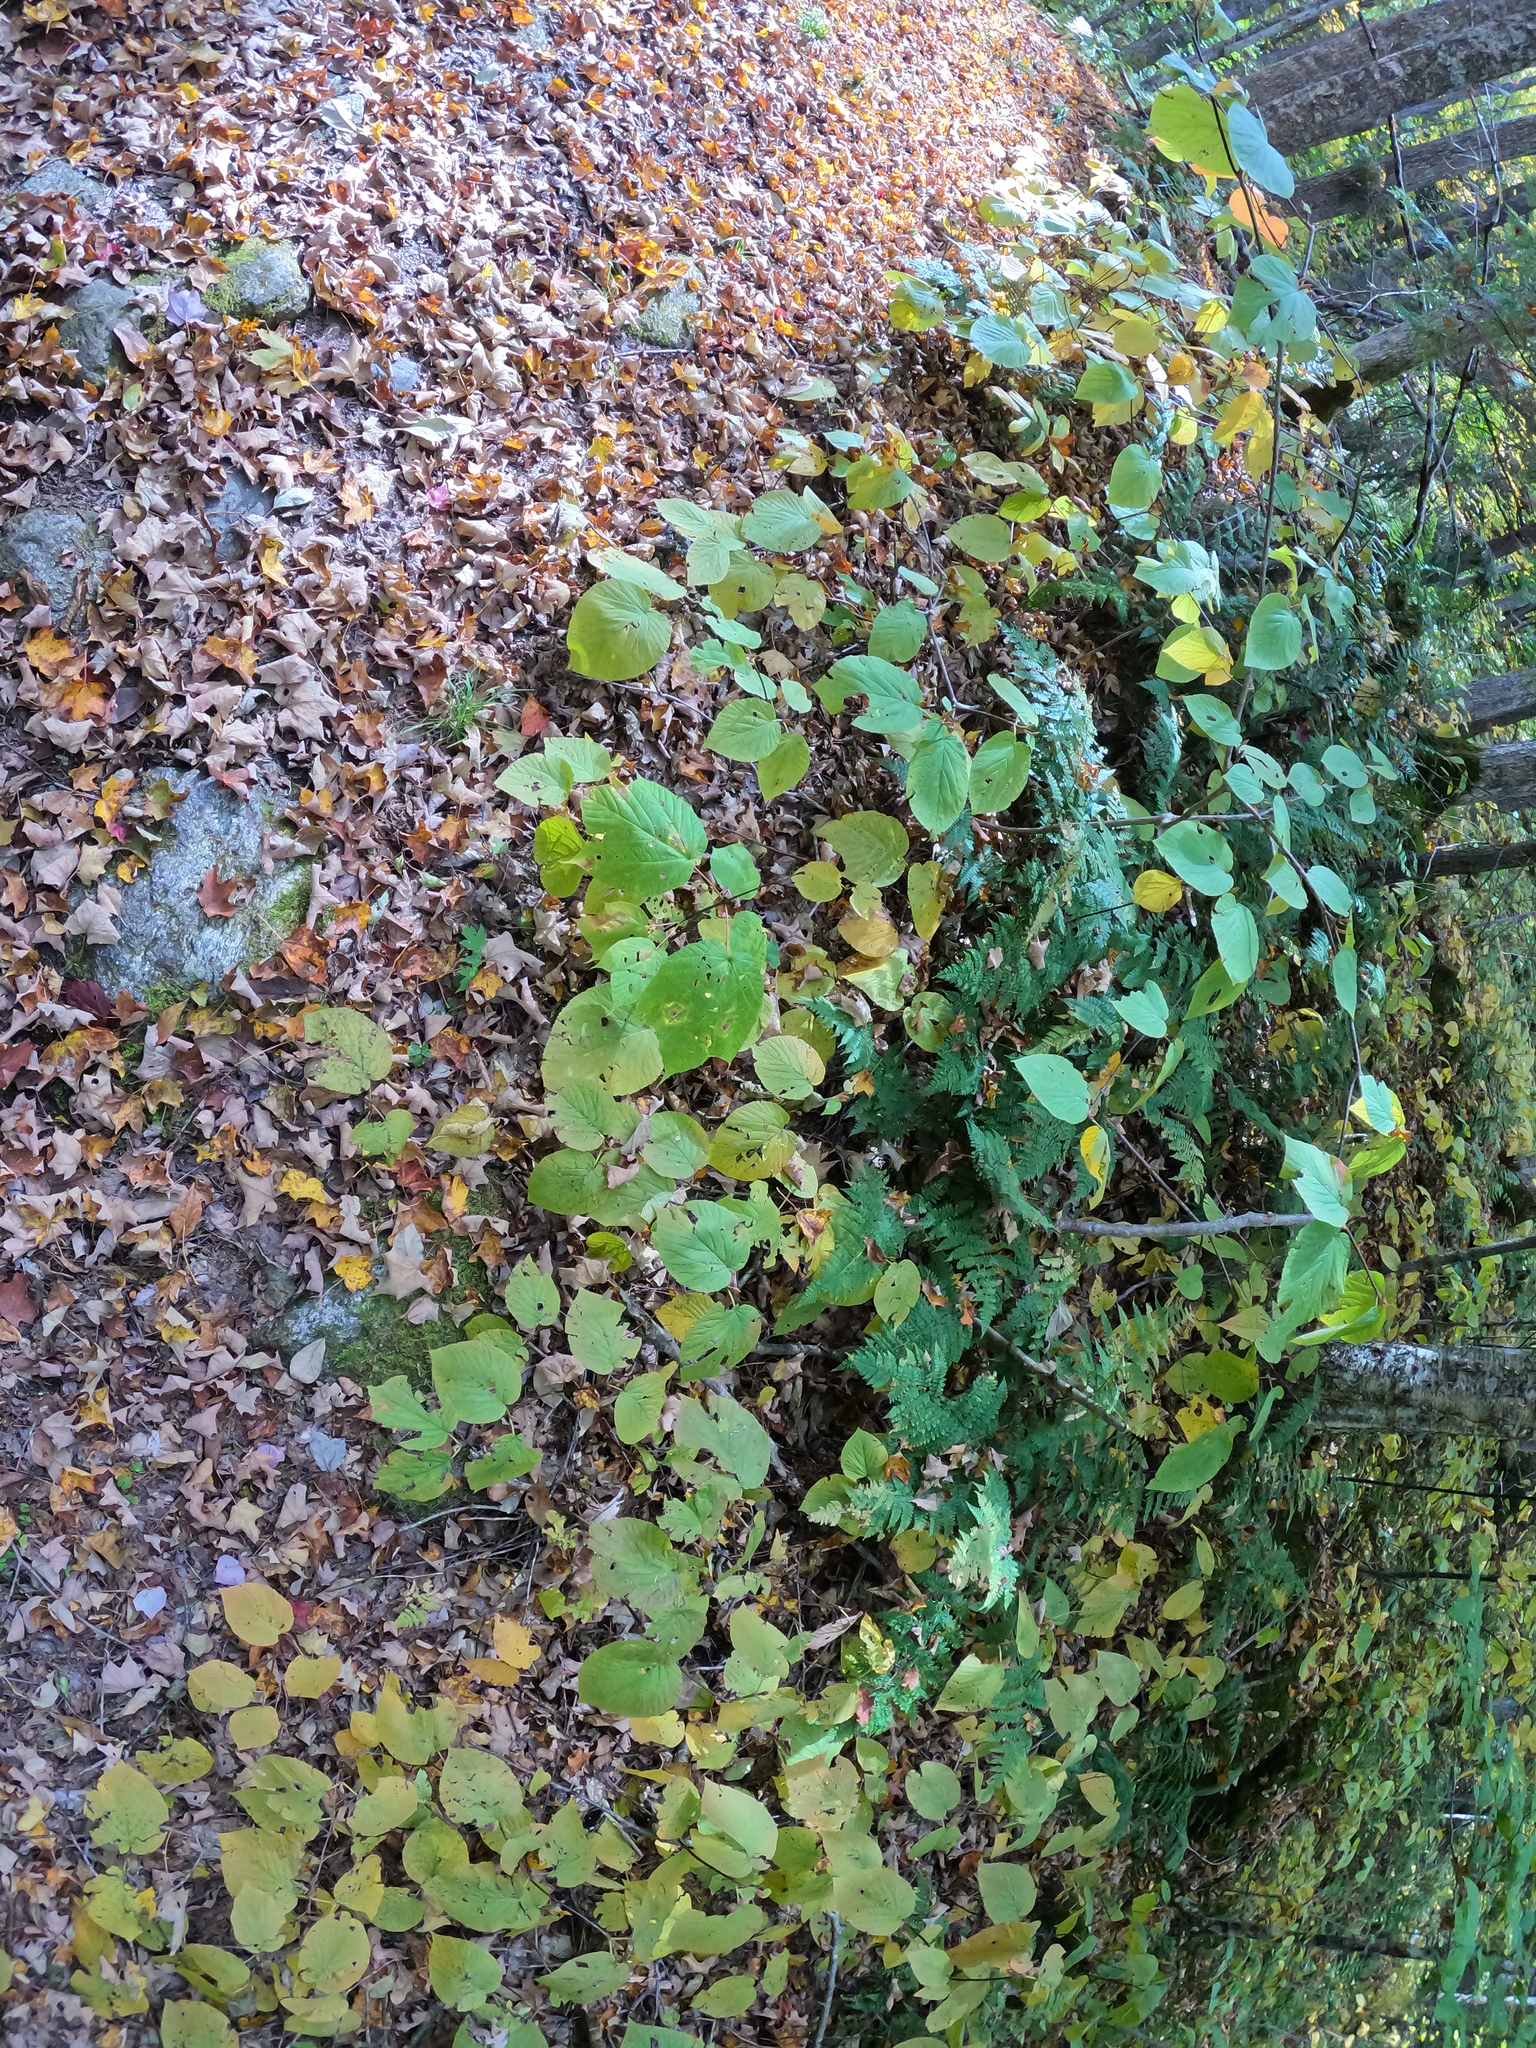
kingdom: Plantae
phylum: Tracheophyta
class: Magnoliopsida
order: Dipsacales
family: Viburnaceae
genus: Viburnum
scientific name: Viburnum lantanoides
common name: Hobblebush
